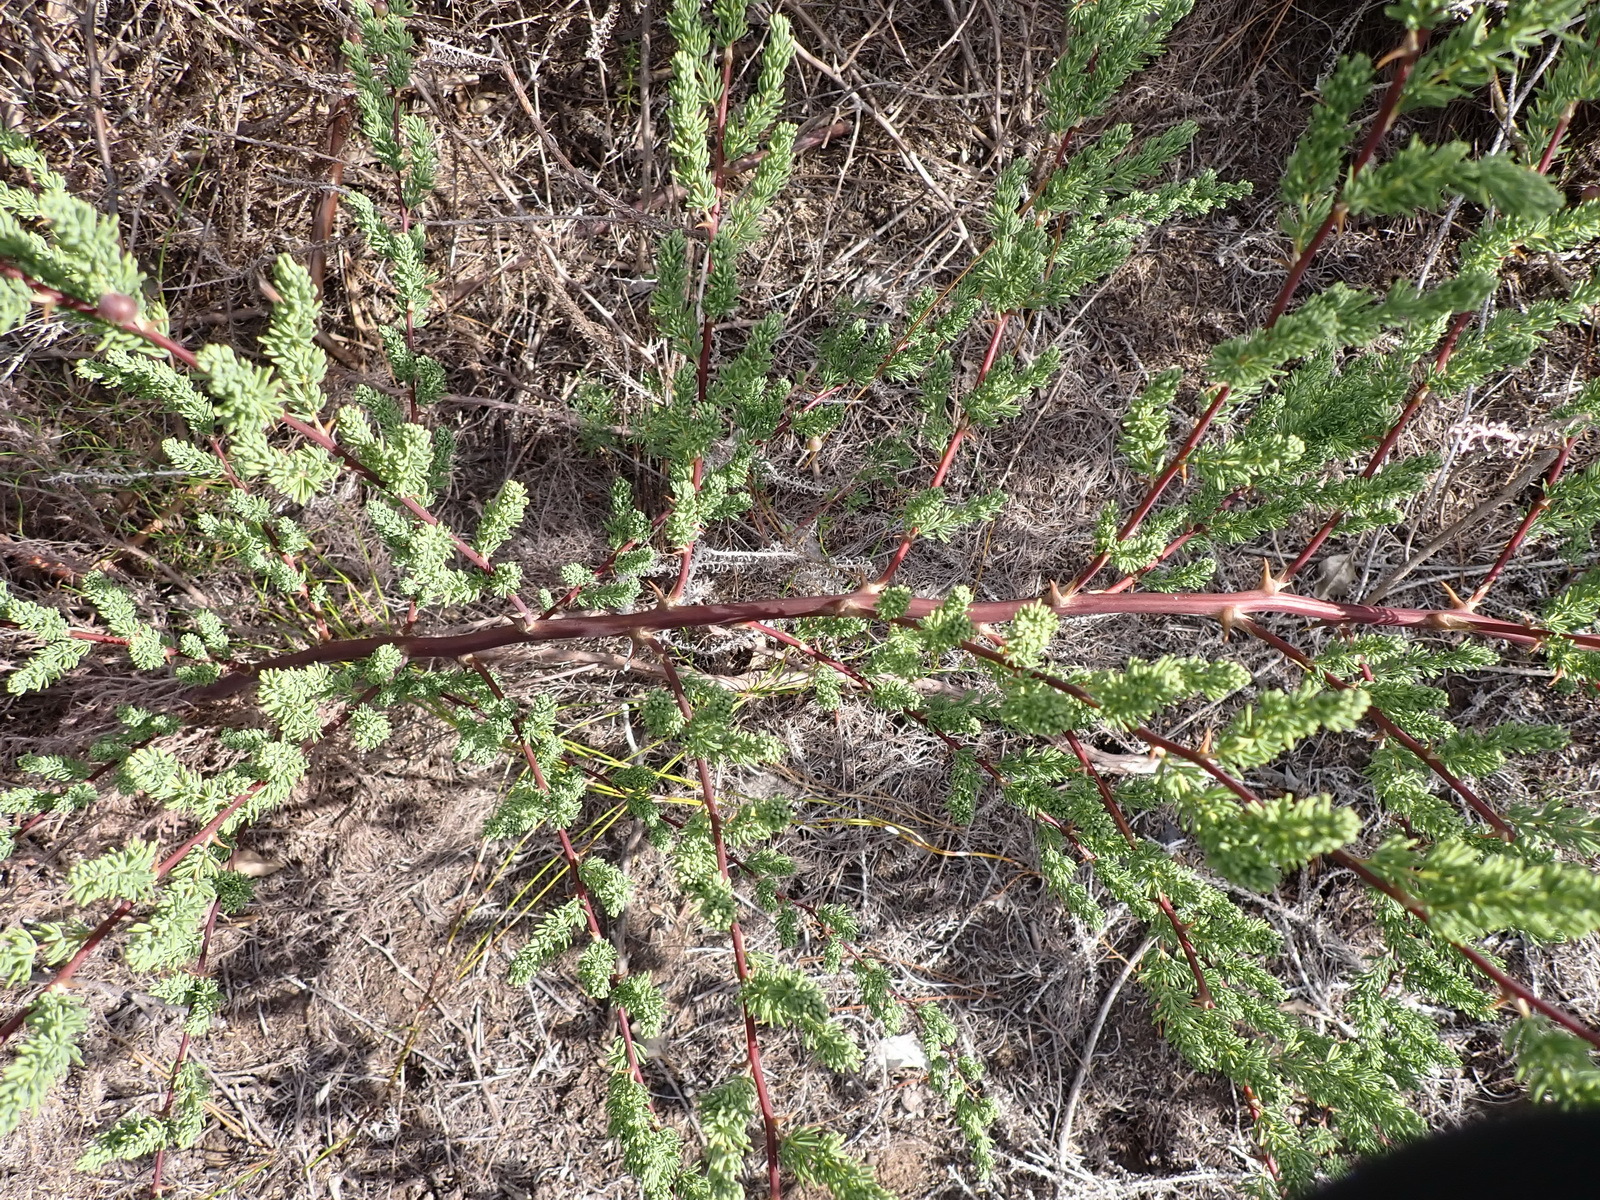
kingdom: Plantae
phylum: Tracheophyta
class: Liliopsida
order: Asparagales
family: Asparagaceae
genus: Asparagus
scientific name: Asparagus rubicundus
